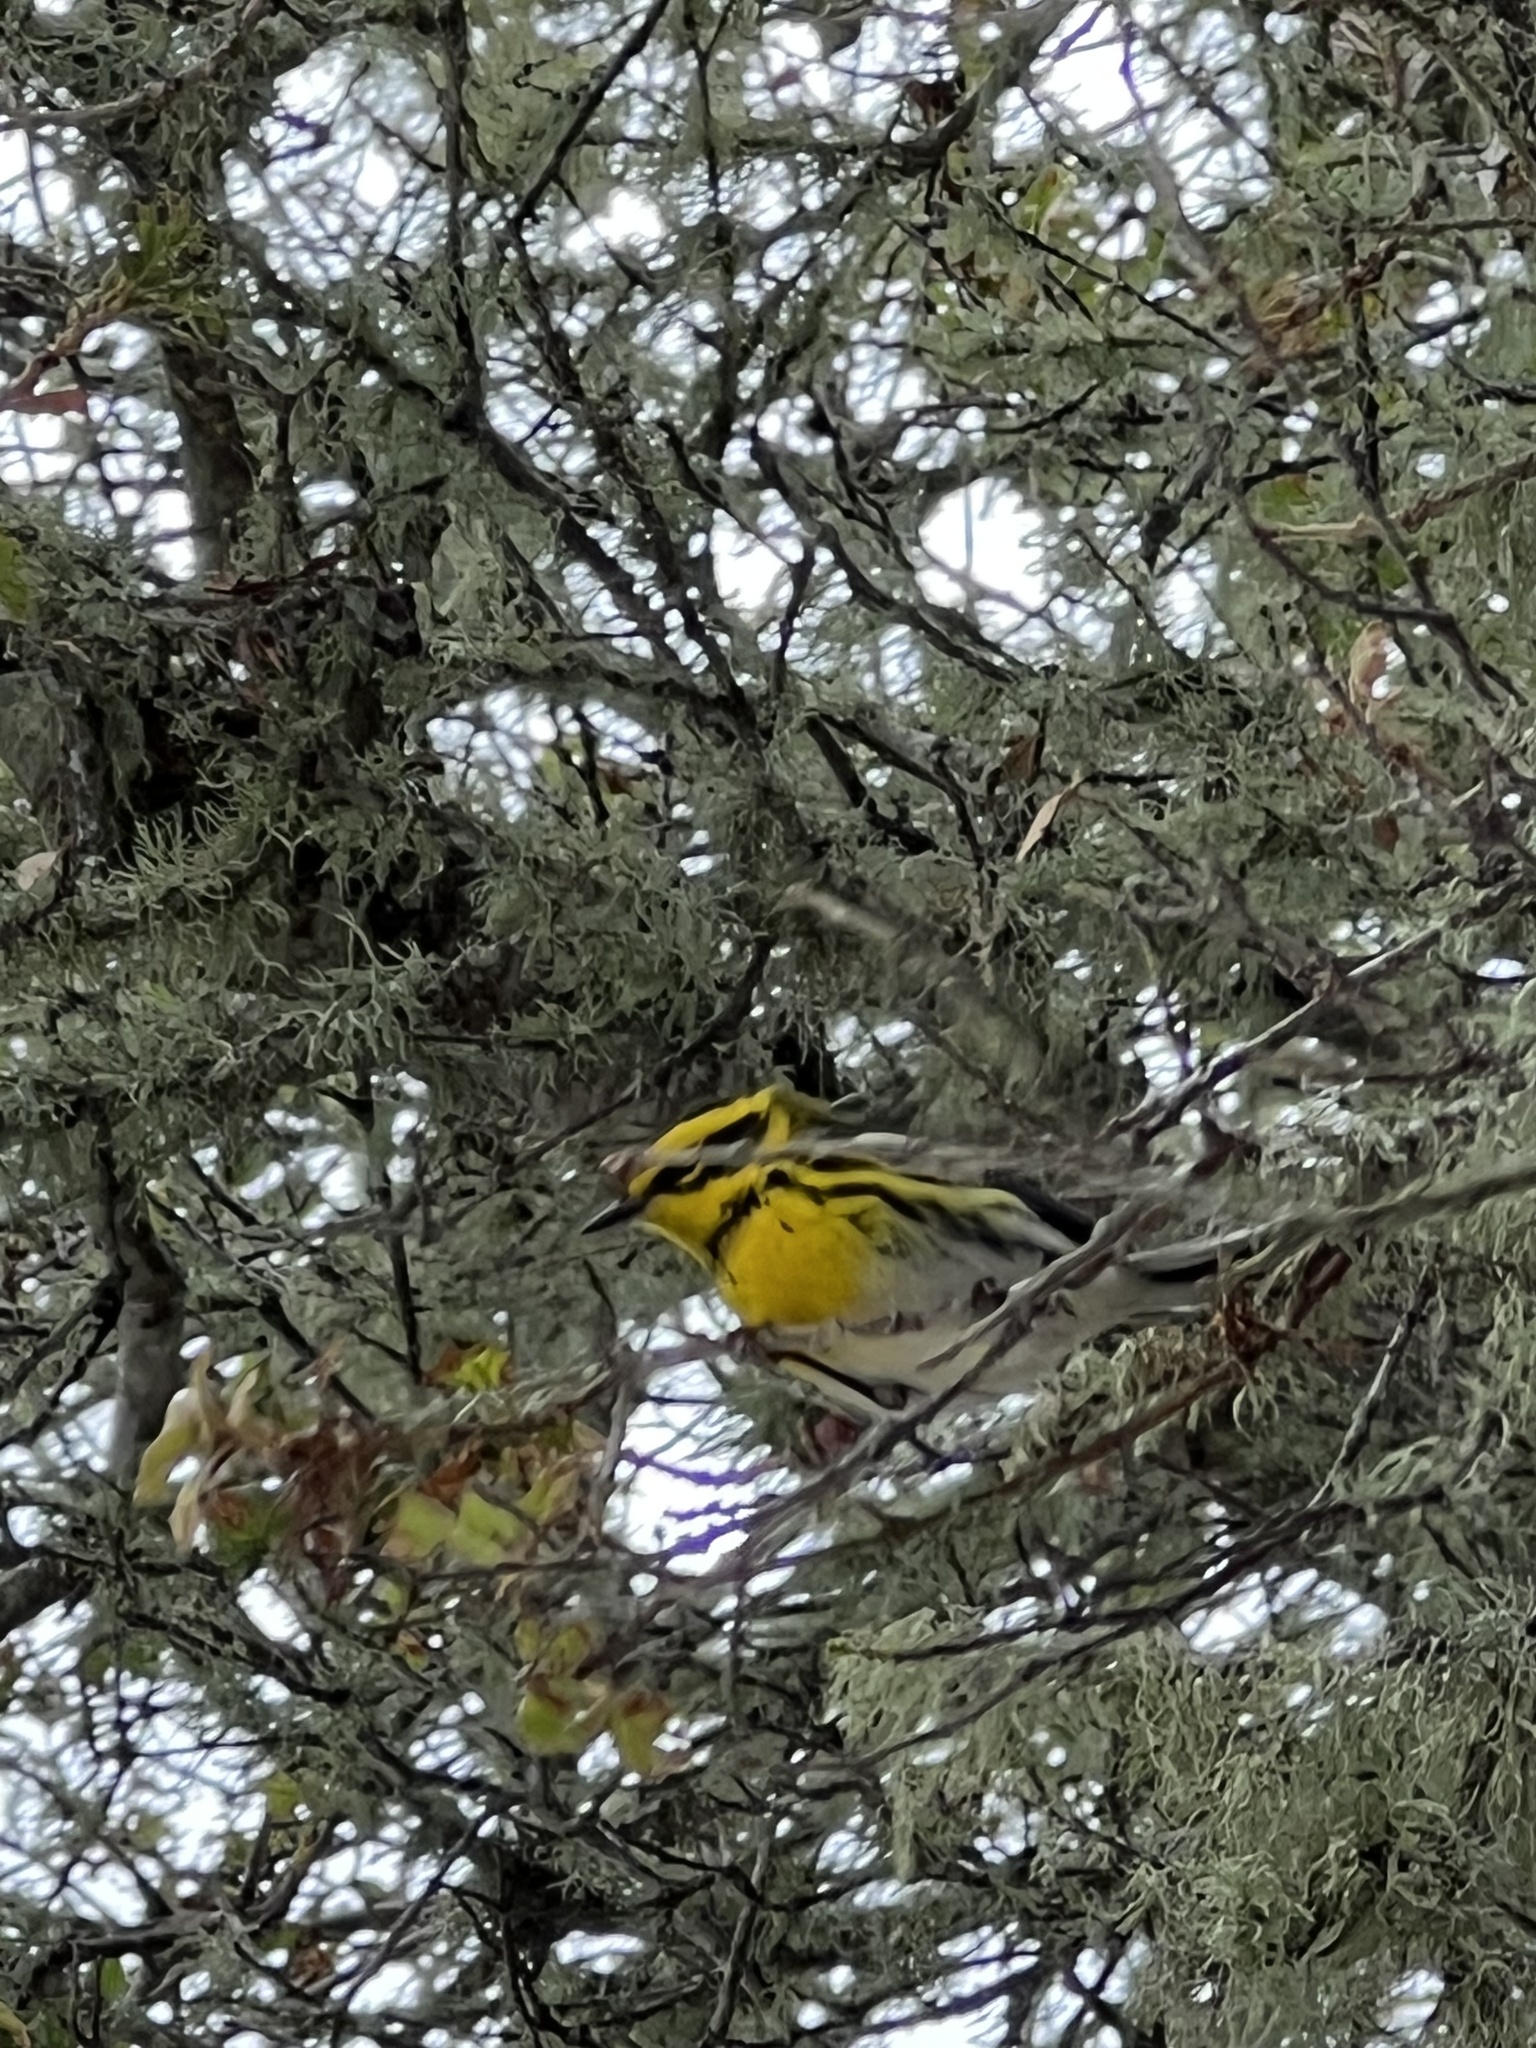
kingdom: Animalia
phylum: Chordata
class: Aves
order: Passeriformes
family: Parulidae
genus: Setophaga
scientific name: Setophaga townsendi
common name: Townsend's warbler
